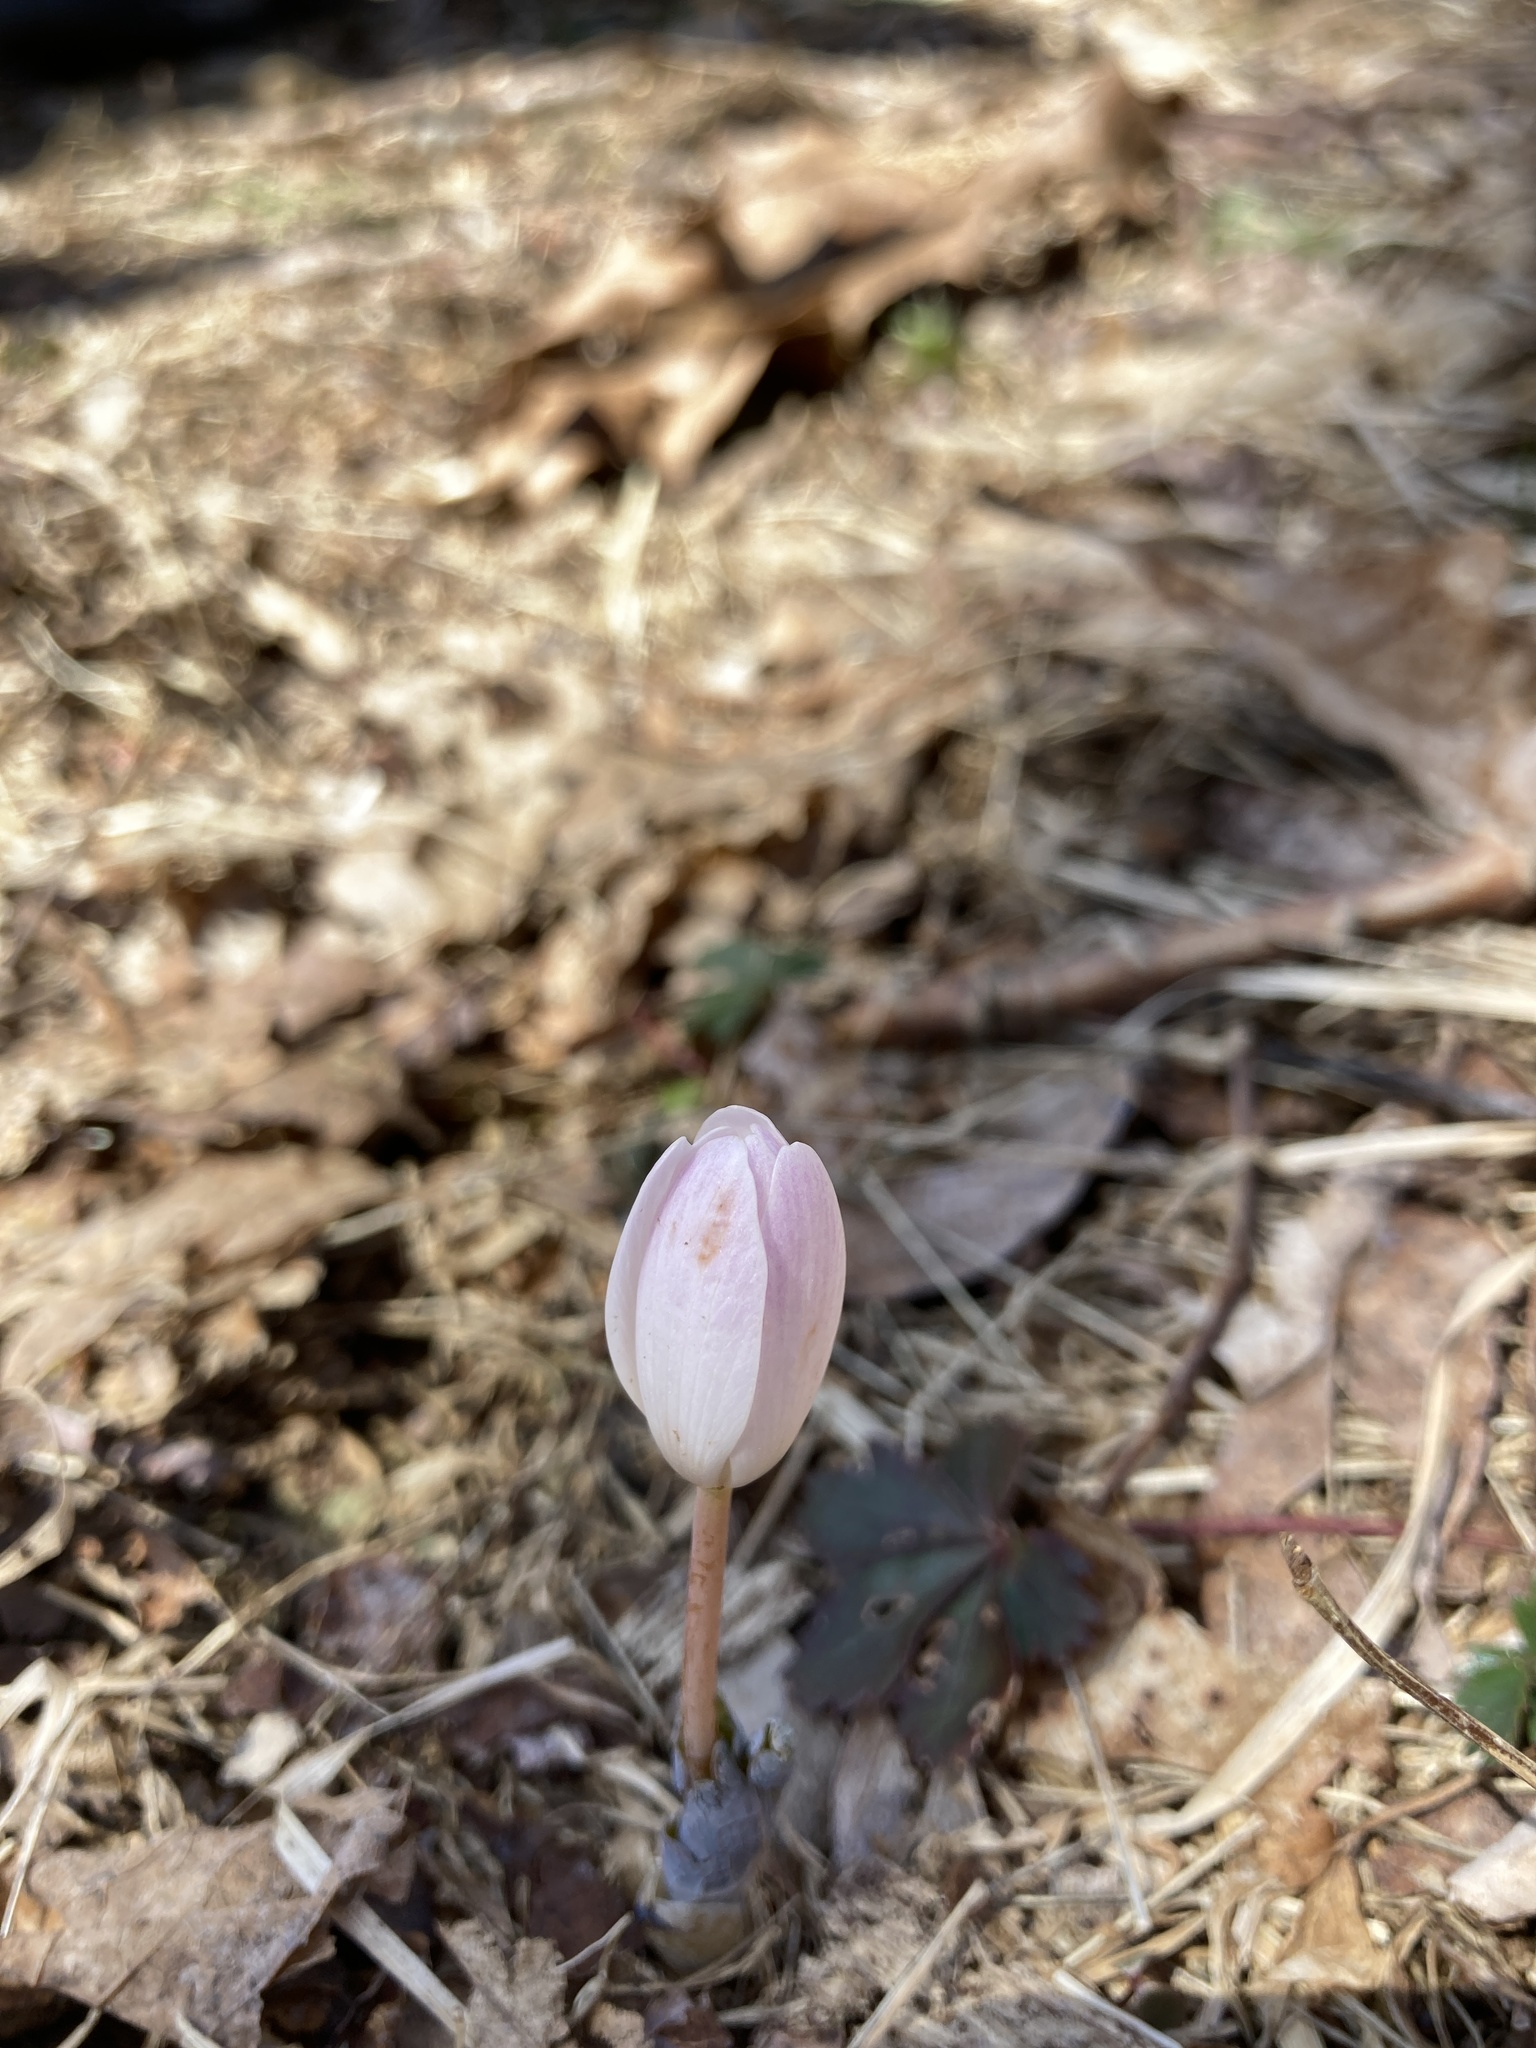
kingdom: Plantae
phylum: Tracheophyta
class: Magnoliopsida
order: Ranunculales
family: Papaveraceae
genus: Sanguinaria
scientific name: Sanguinaria canadensis
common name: Bloodroot
